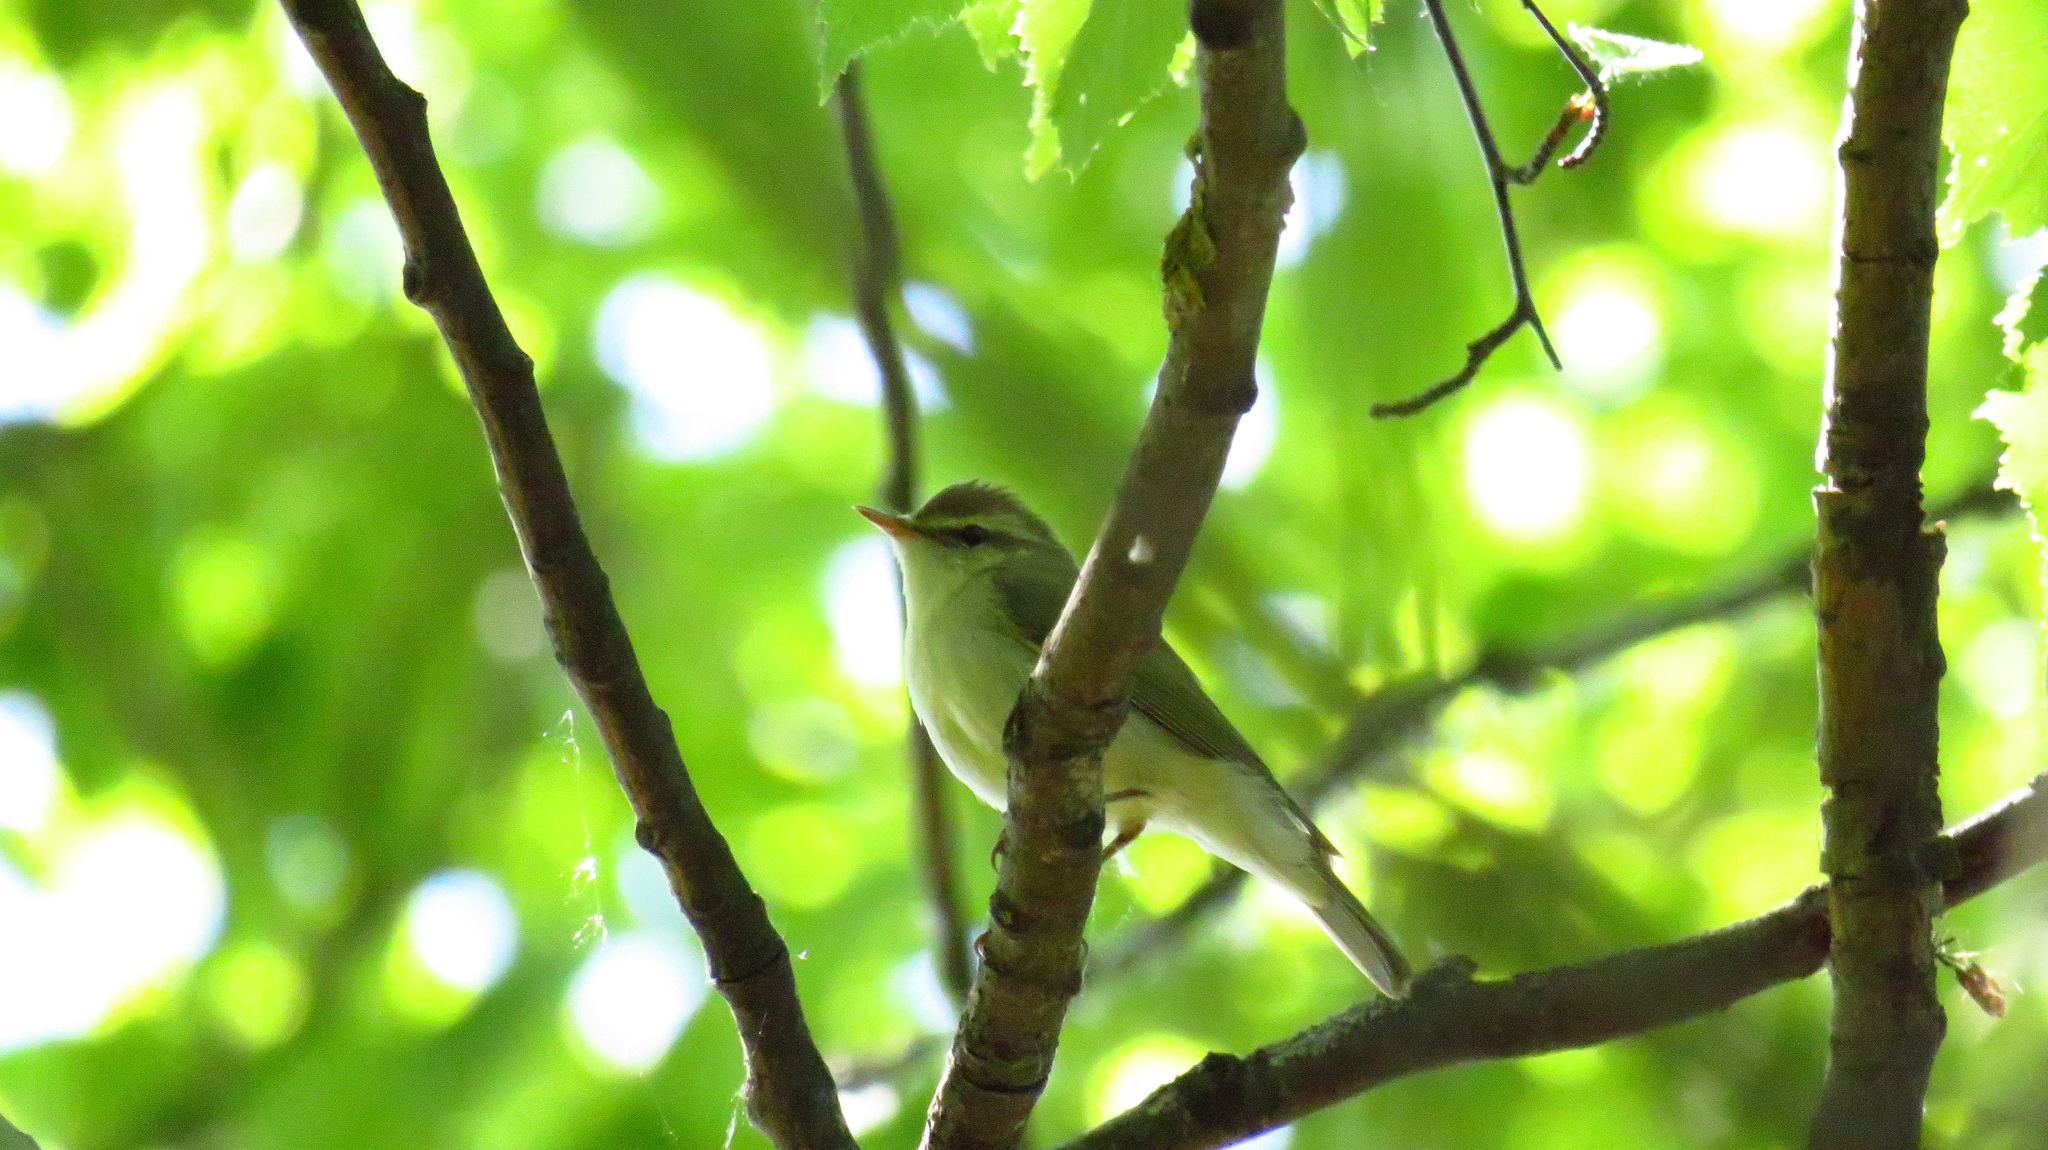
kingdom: Animalia
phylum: Chordata
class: Aves
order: Passeriformes
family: Phylloscopidae
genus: Phylloscopus
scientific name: Phylloscopus trochiloides
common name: Greenish warbler
